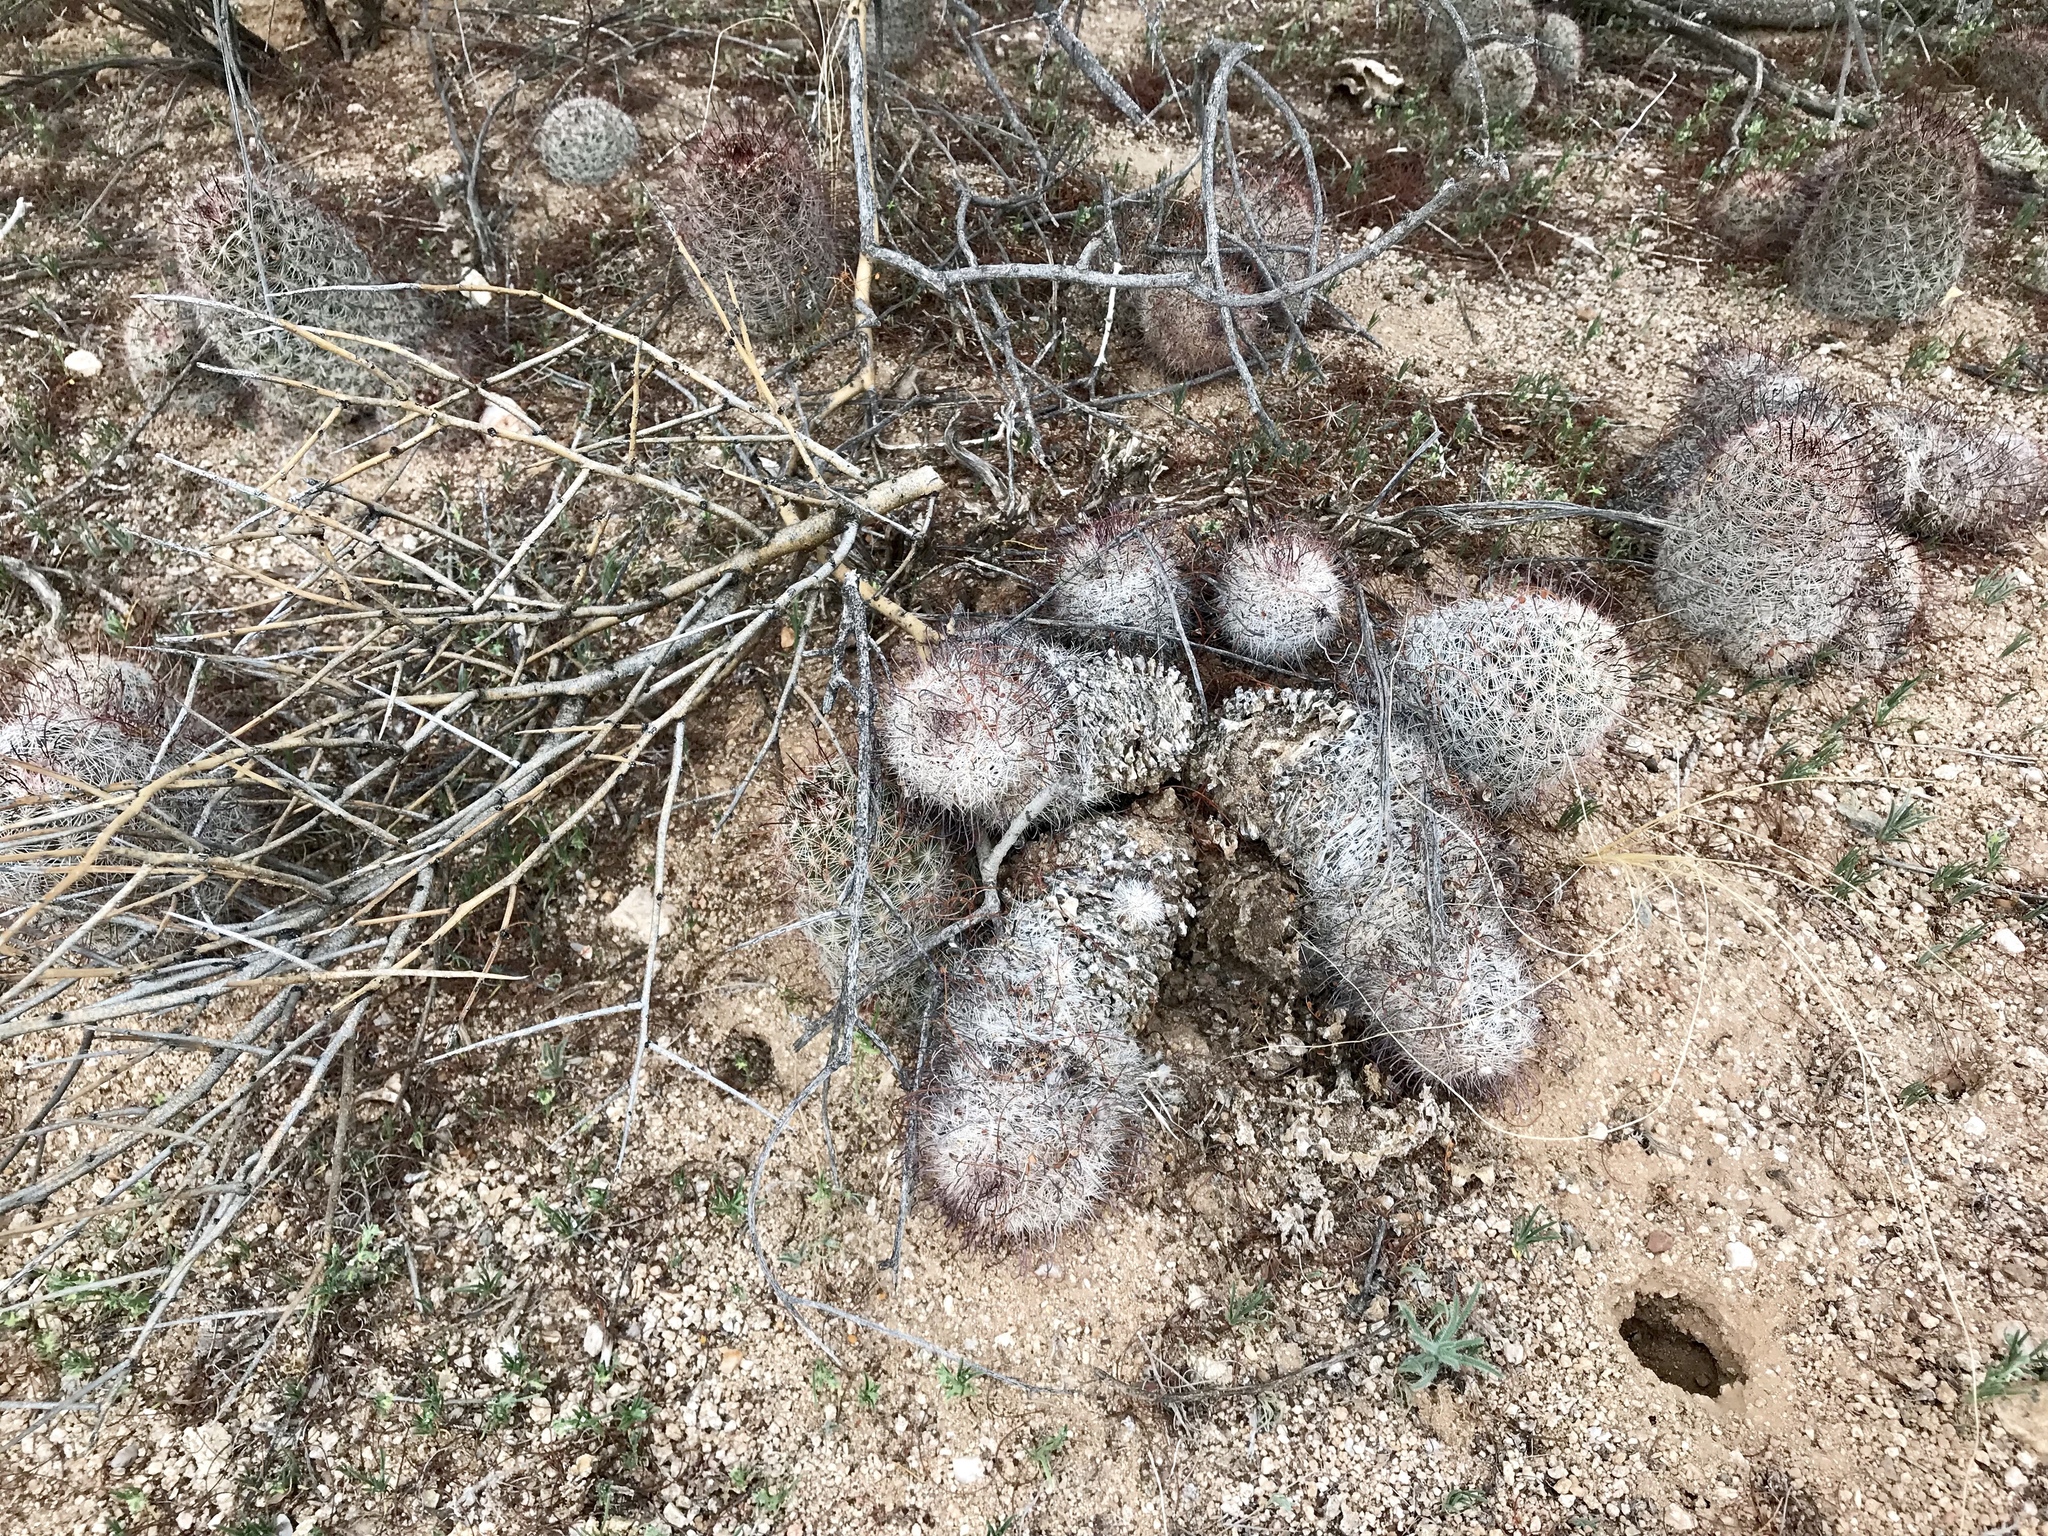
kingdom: Plantae
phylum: Tracheophyta
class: Magnoliopsida
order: Caryophyllales
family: Cactaceae
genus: Cochemiea
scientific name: Cochemiea grahamii
